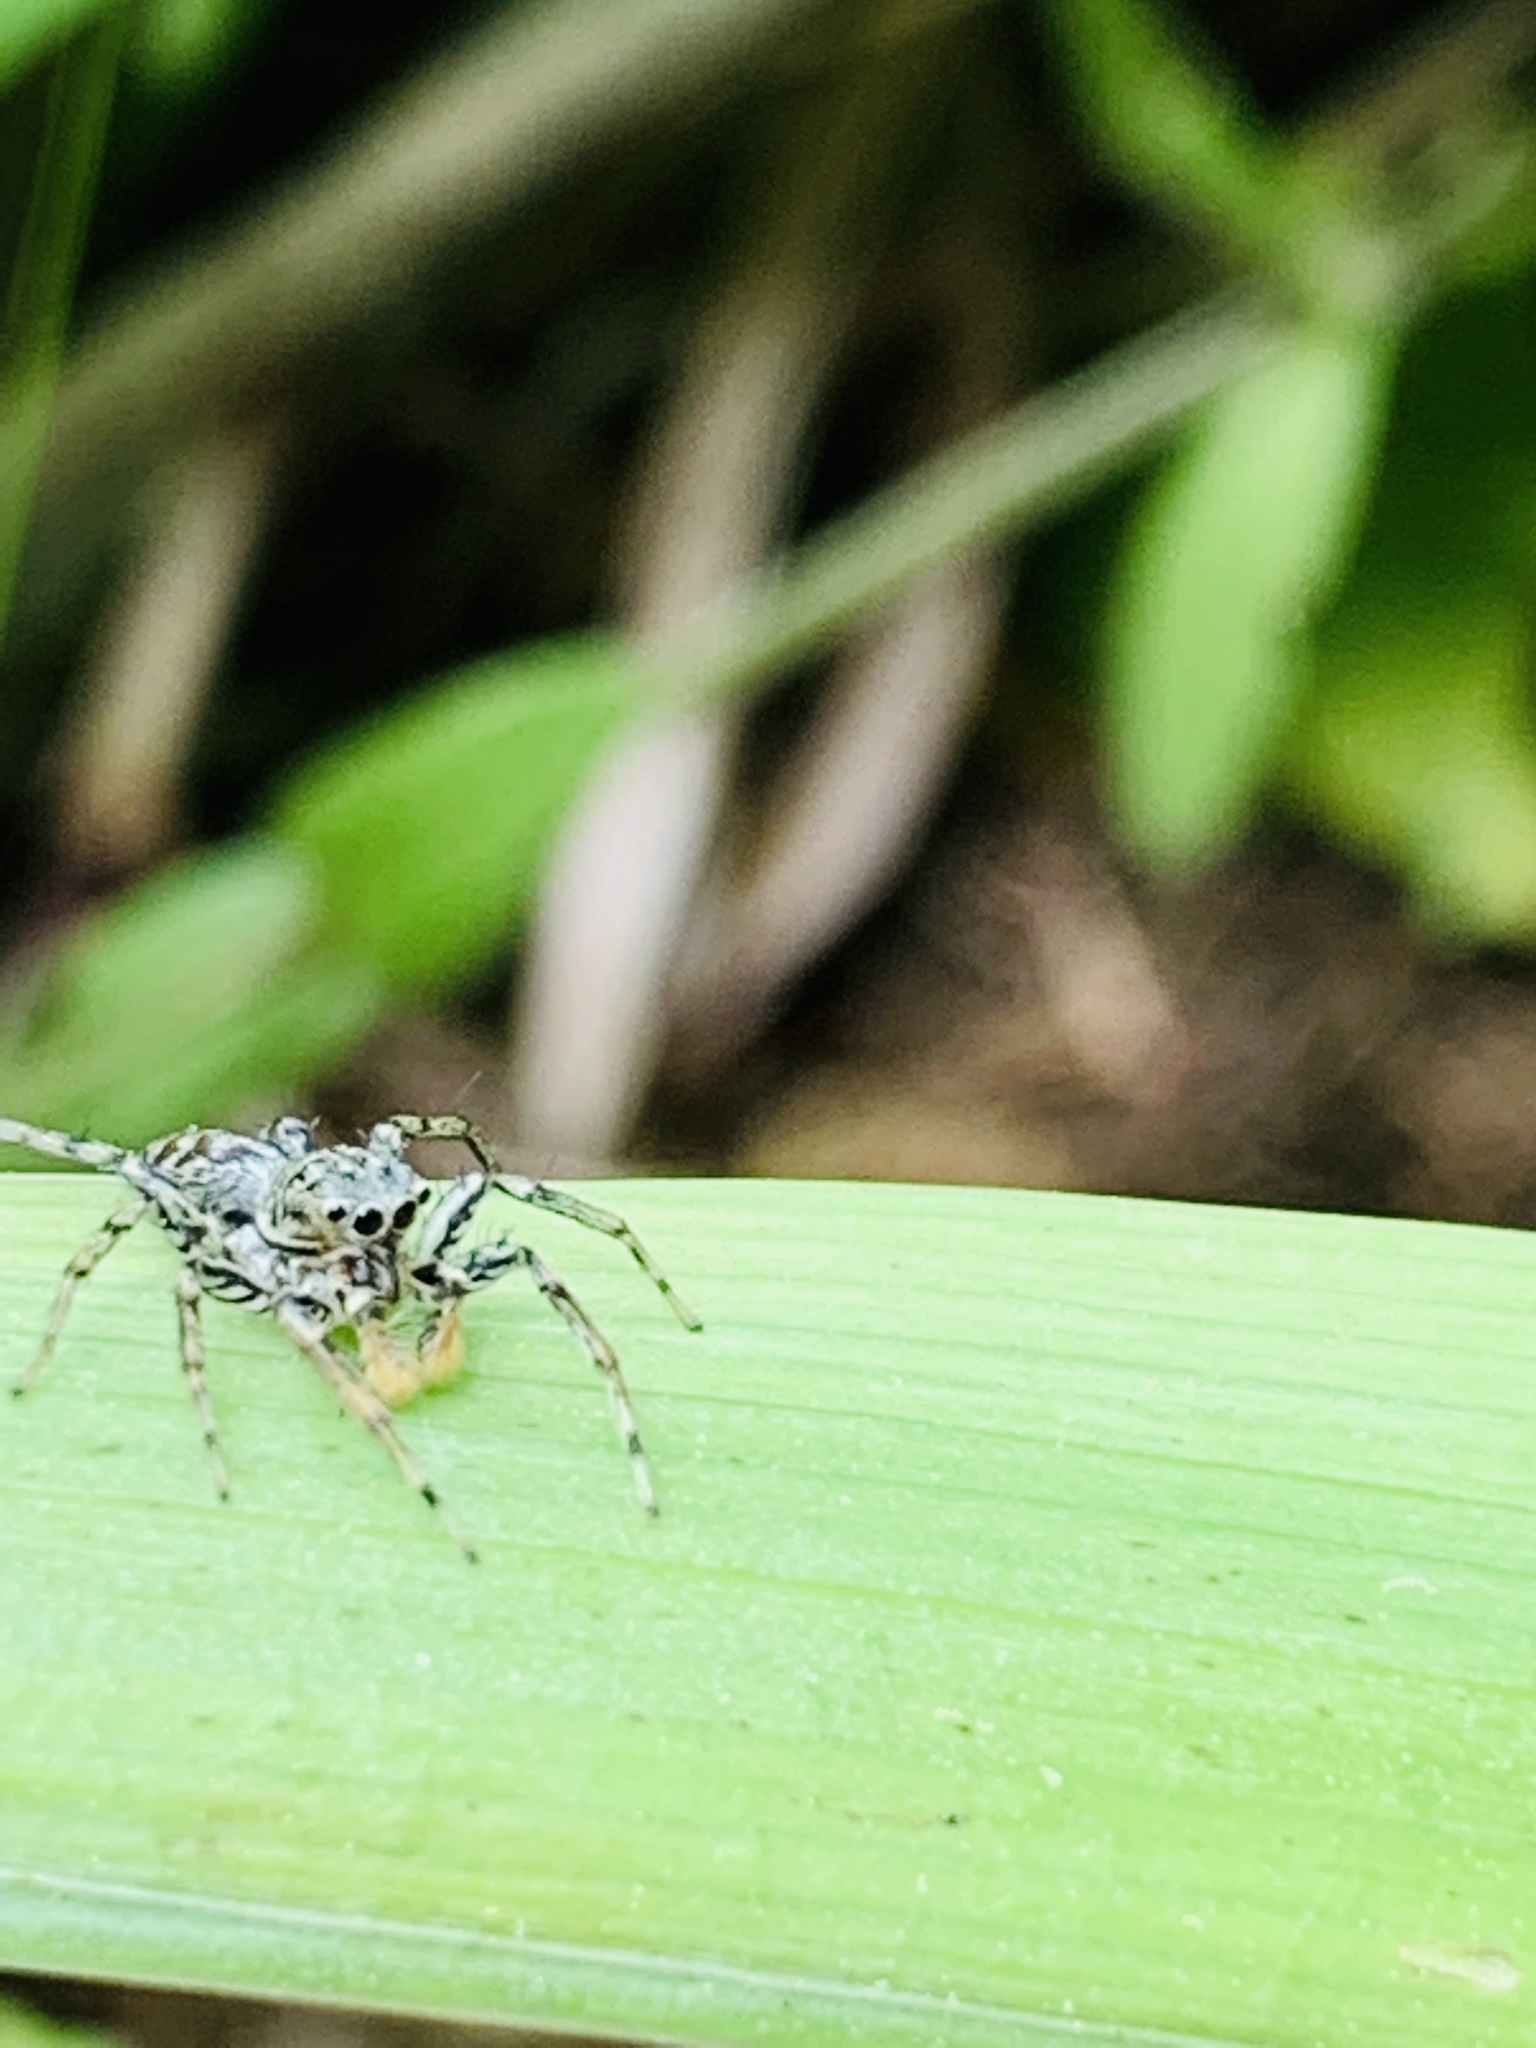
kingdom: Animalia
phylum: Arthropoda
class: Arachnida
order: Araneae
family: Salticidae
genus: Maevia
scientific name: Maevia inclemens
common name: Dimorphic jumper
